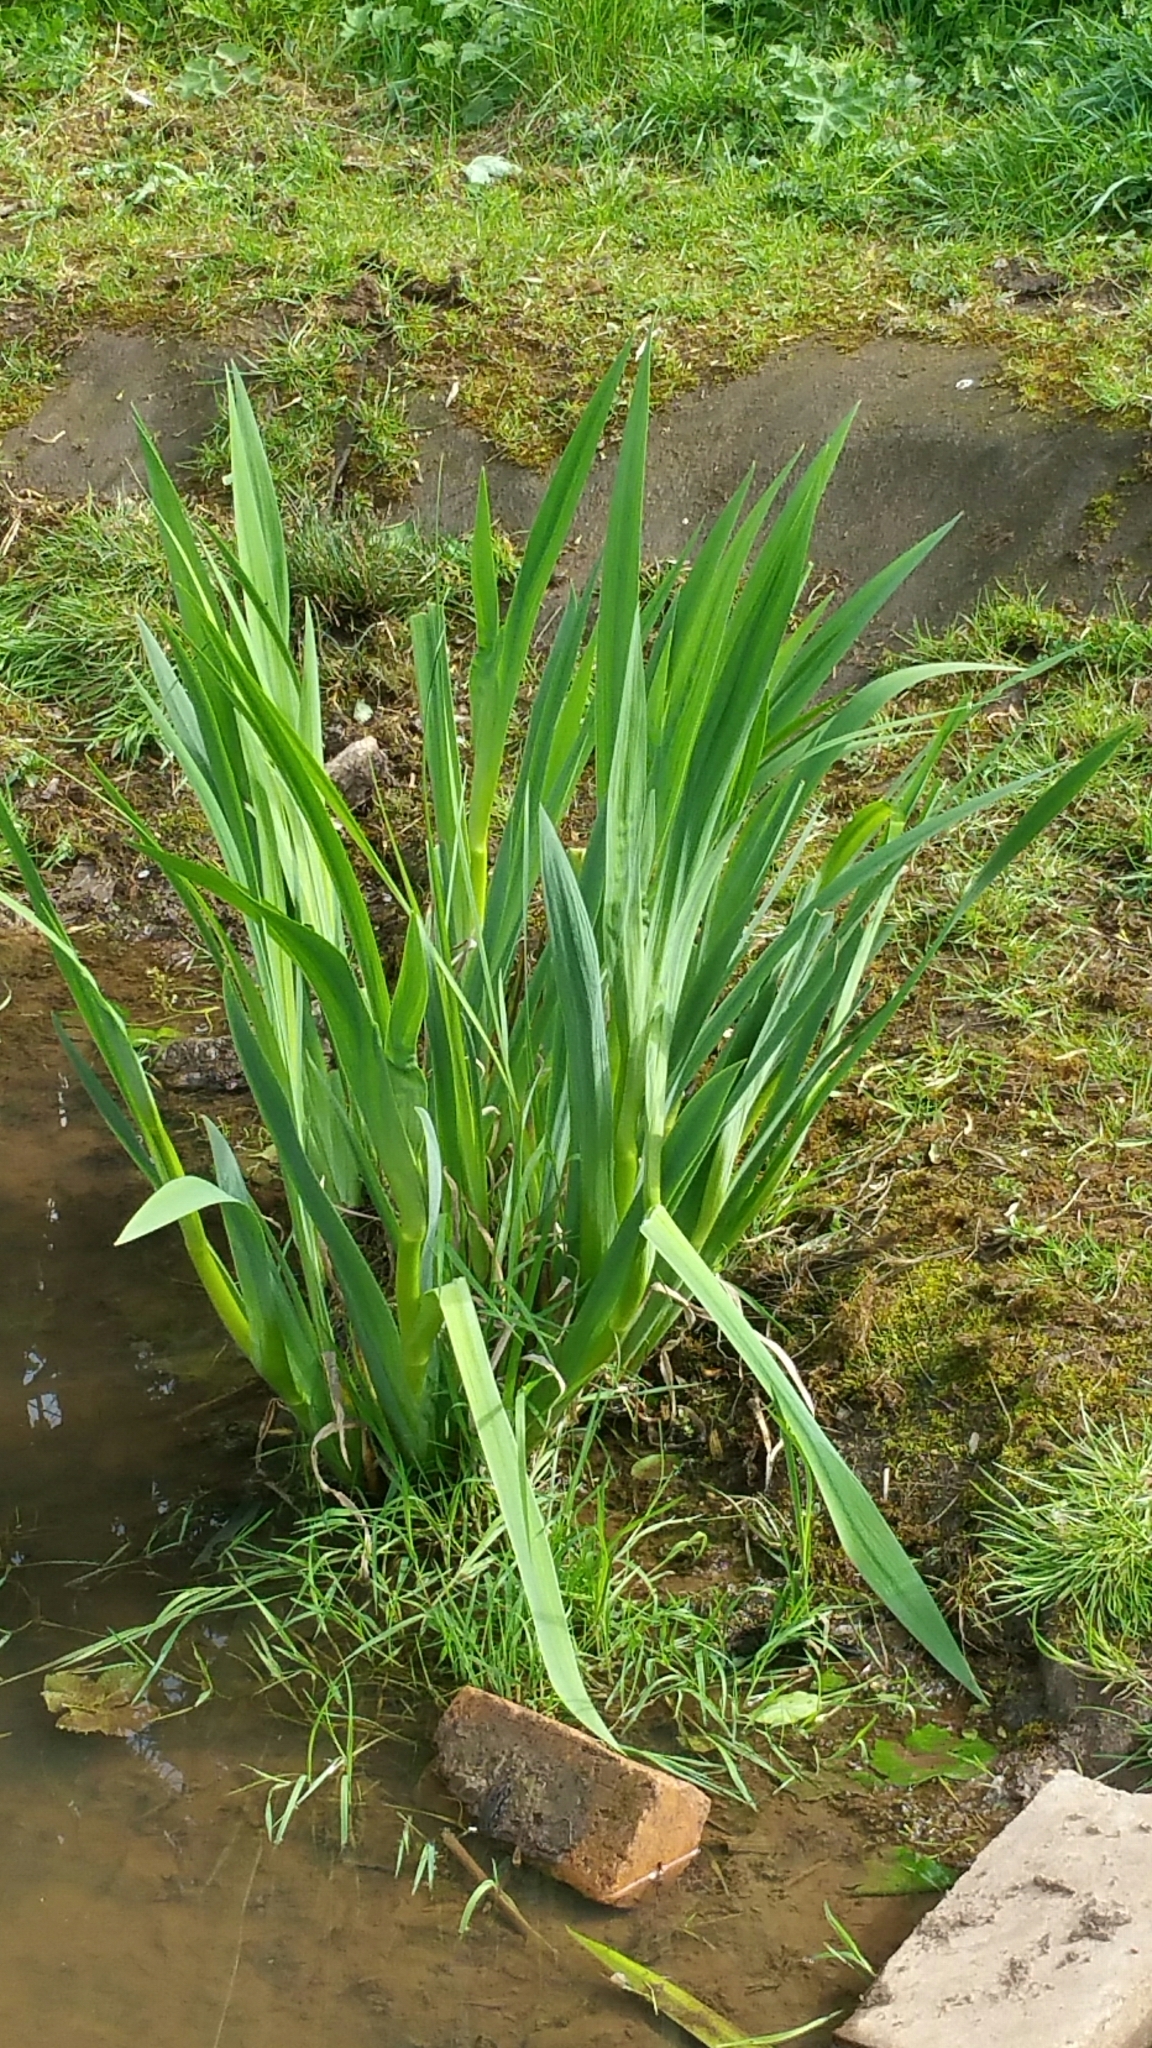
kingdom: Plantae
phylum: Tracheophyta
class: Liliopsida
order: Asparagales
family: Iridaceae
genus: Iris
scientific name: Iris pseudacorus
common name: Yellow flag
